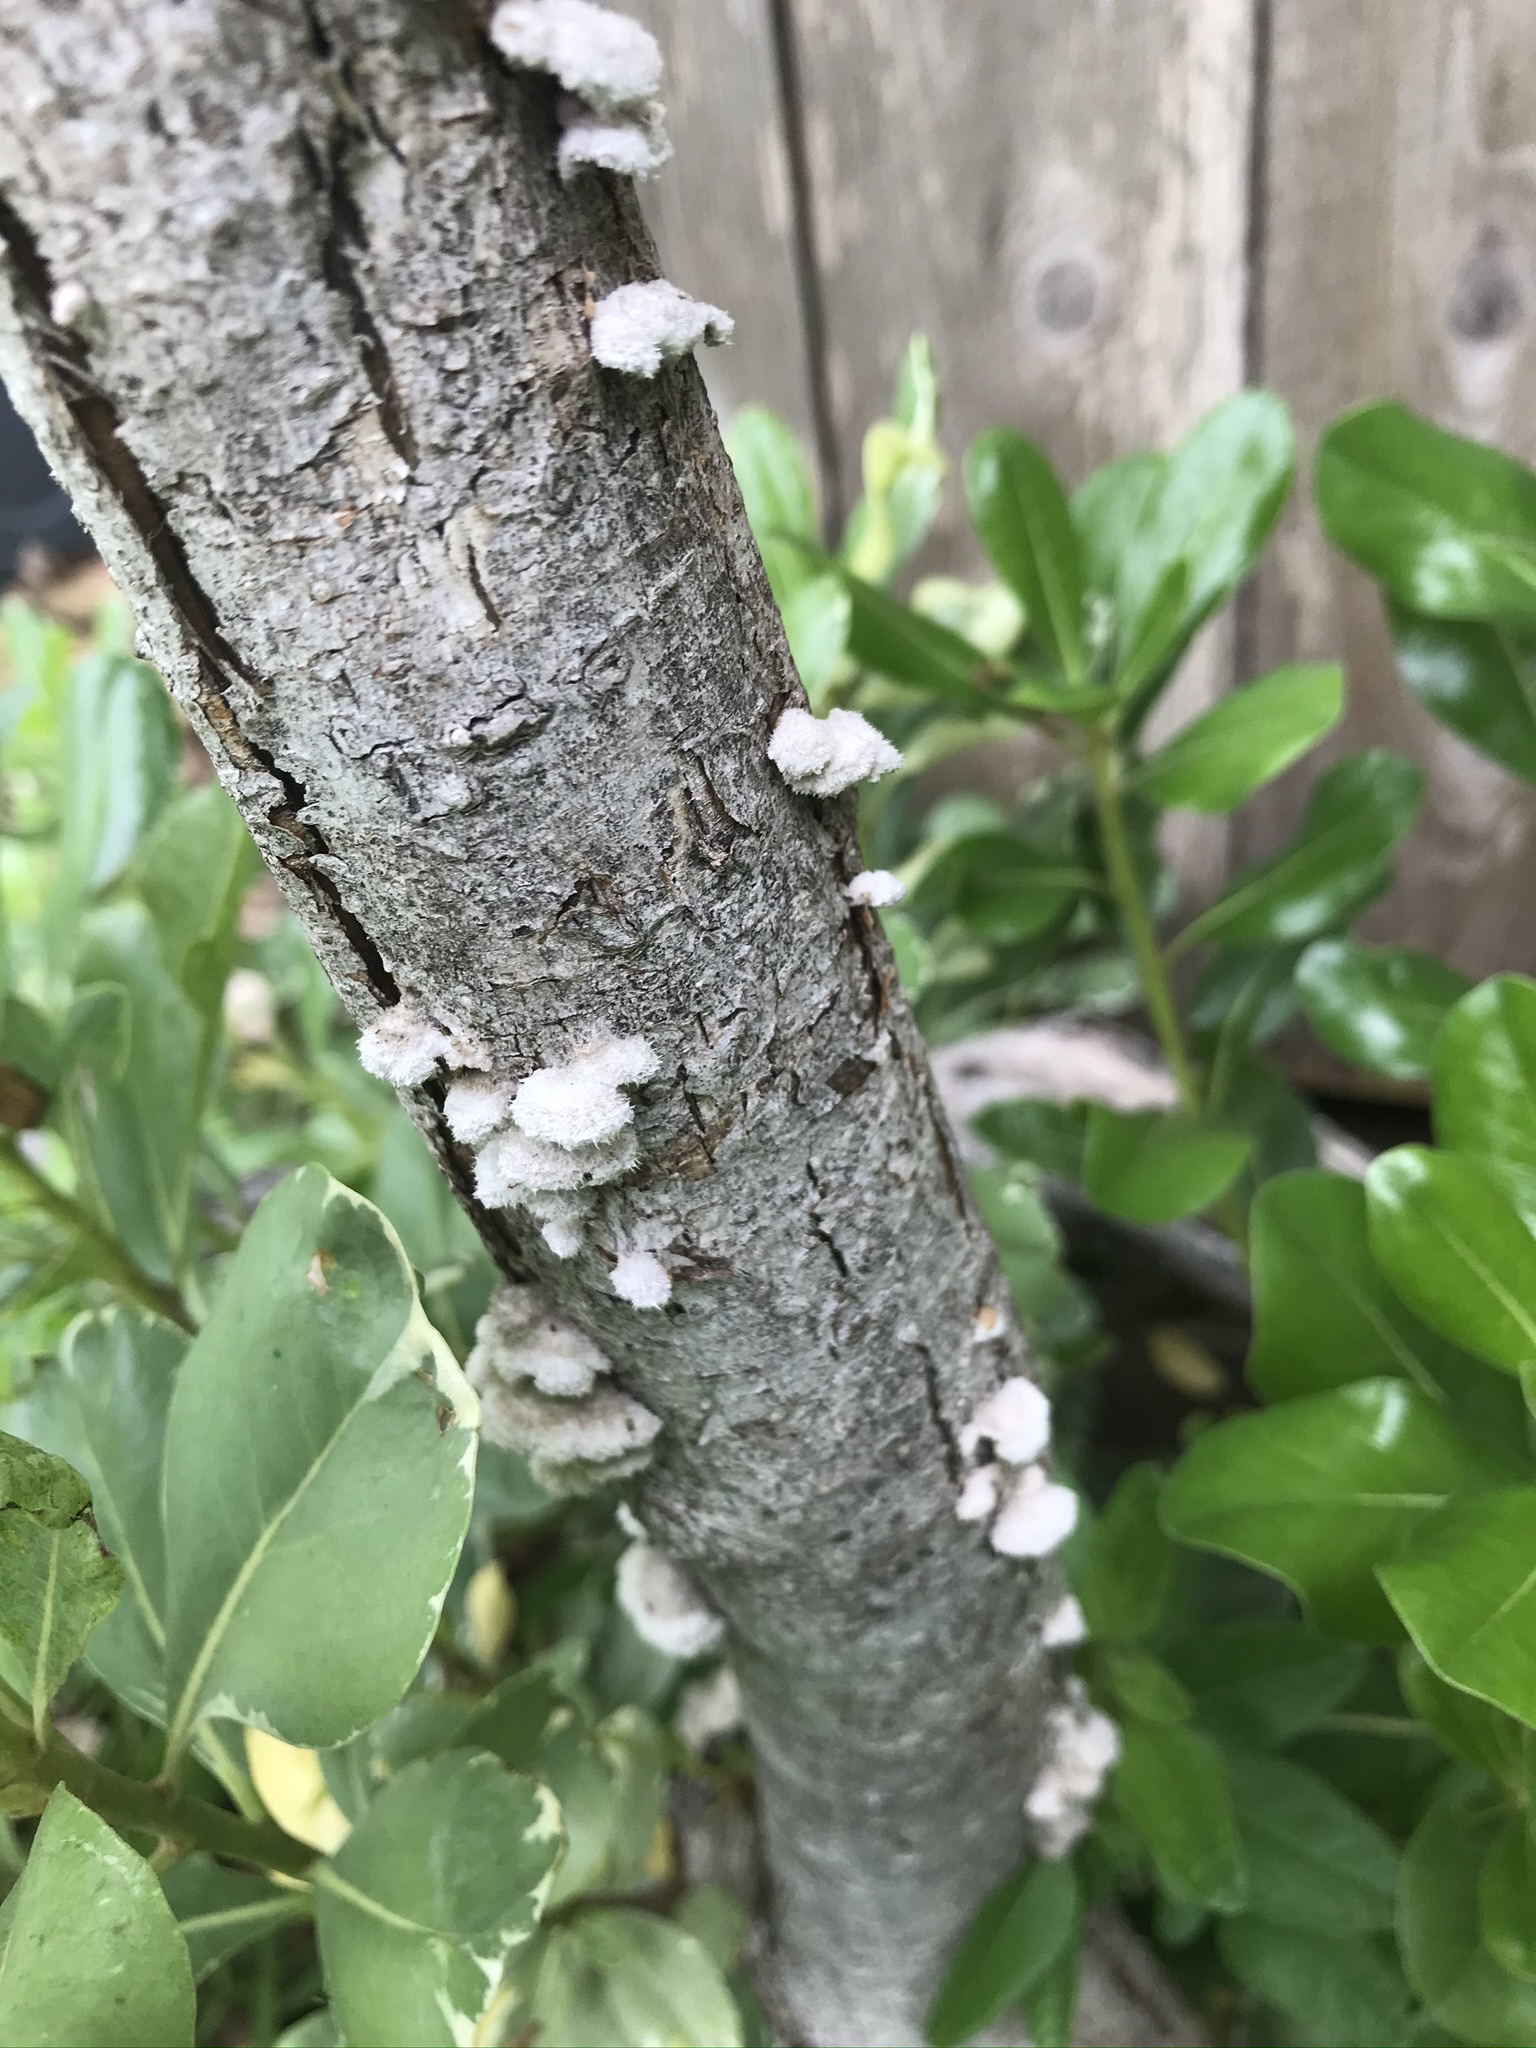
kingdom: Fungi
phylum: Basidiomycota
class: Agaricomycetes
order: Agaricales
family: Schizophyllaceae
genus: Schizophyllum
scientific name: Schizophyllum commune
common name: Common porecrust
